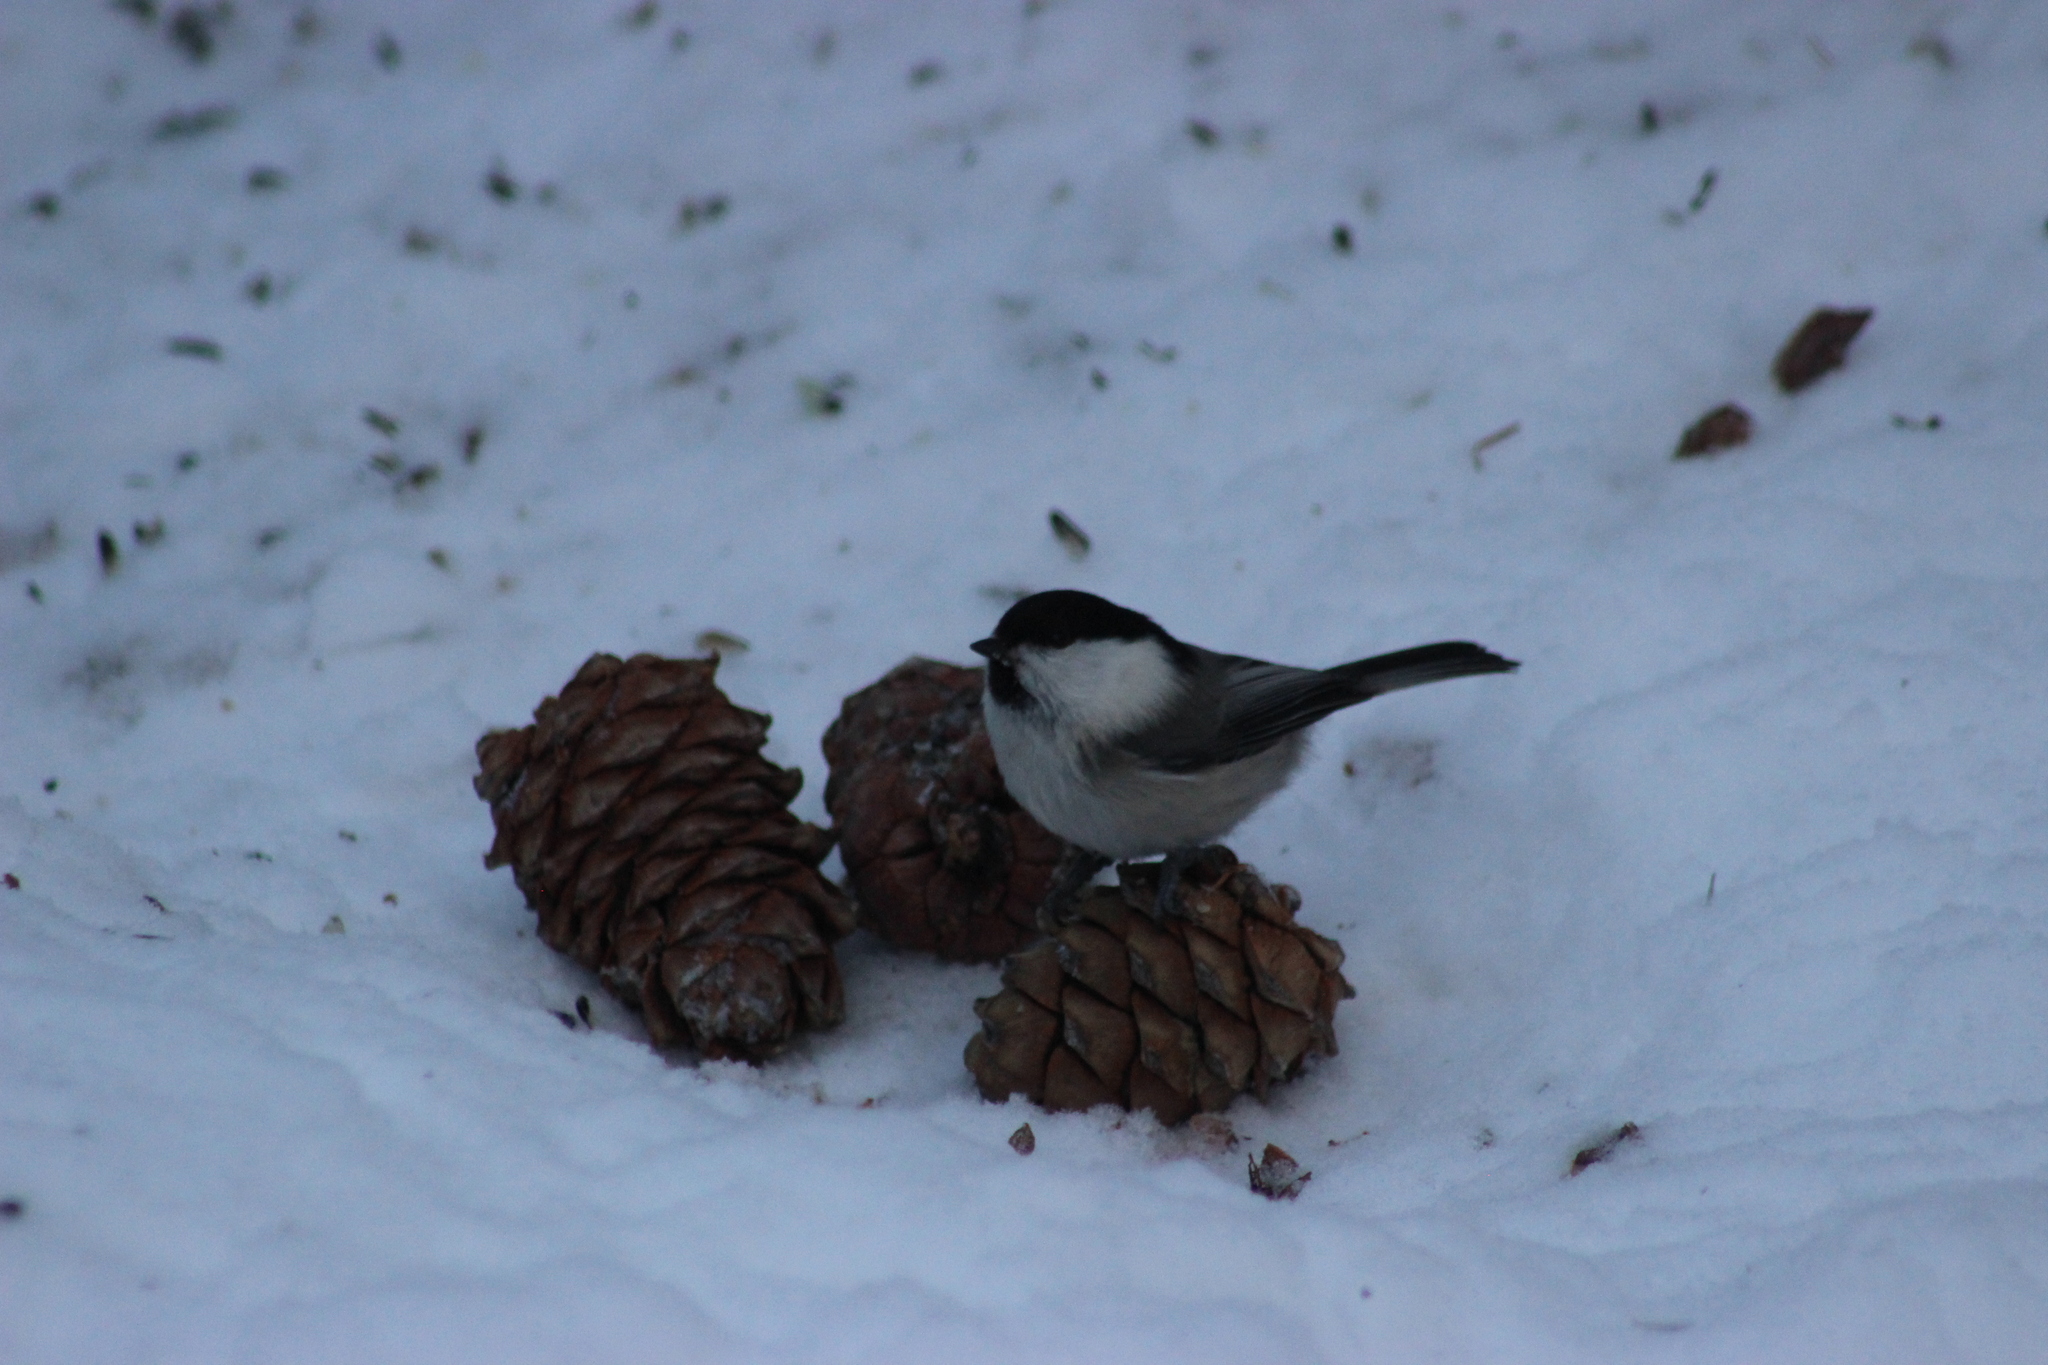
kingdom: Animalia
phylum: Chordata
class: Aves
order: Passeriformes
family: Paridae
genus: Poecile
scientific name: Poecile montanus
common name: Willow tit
